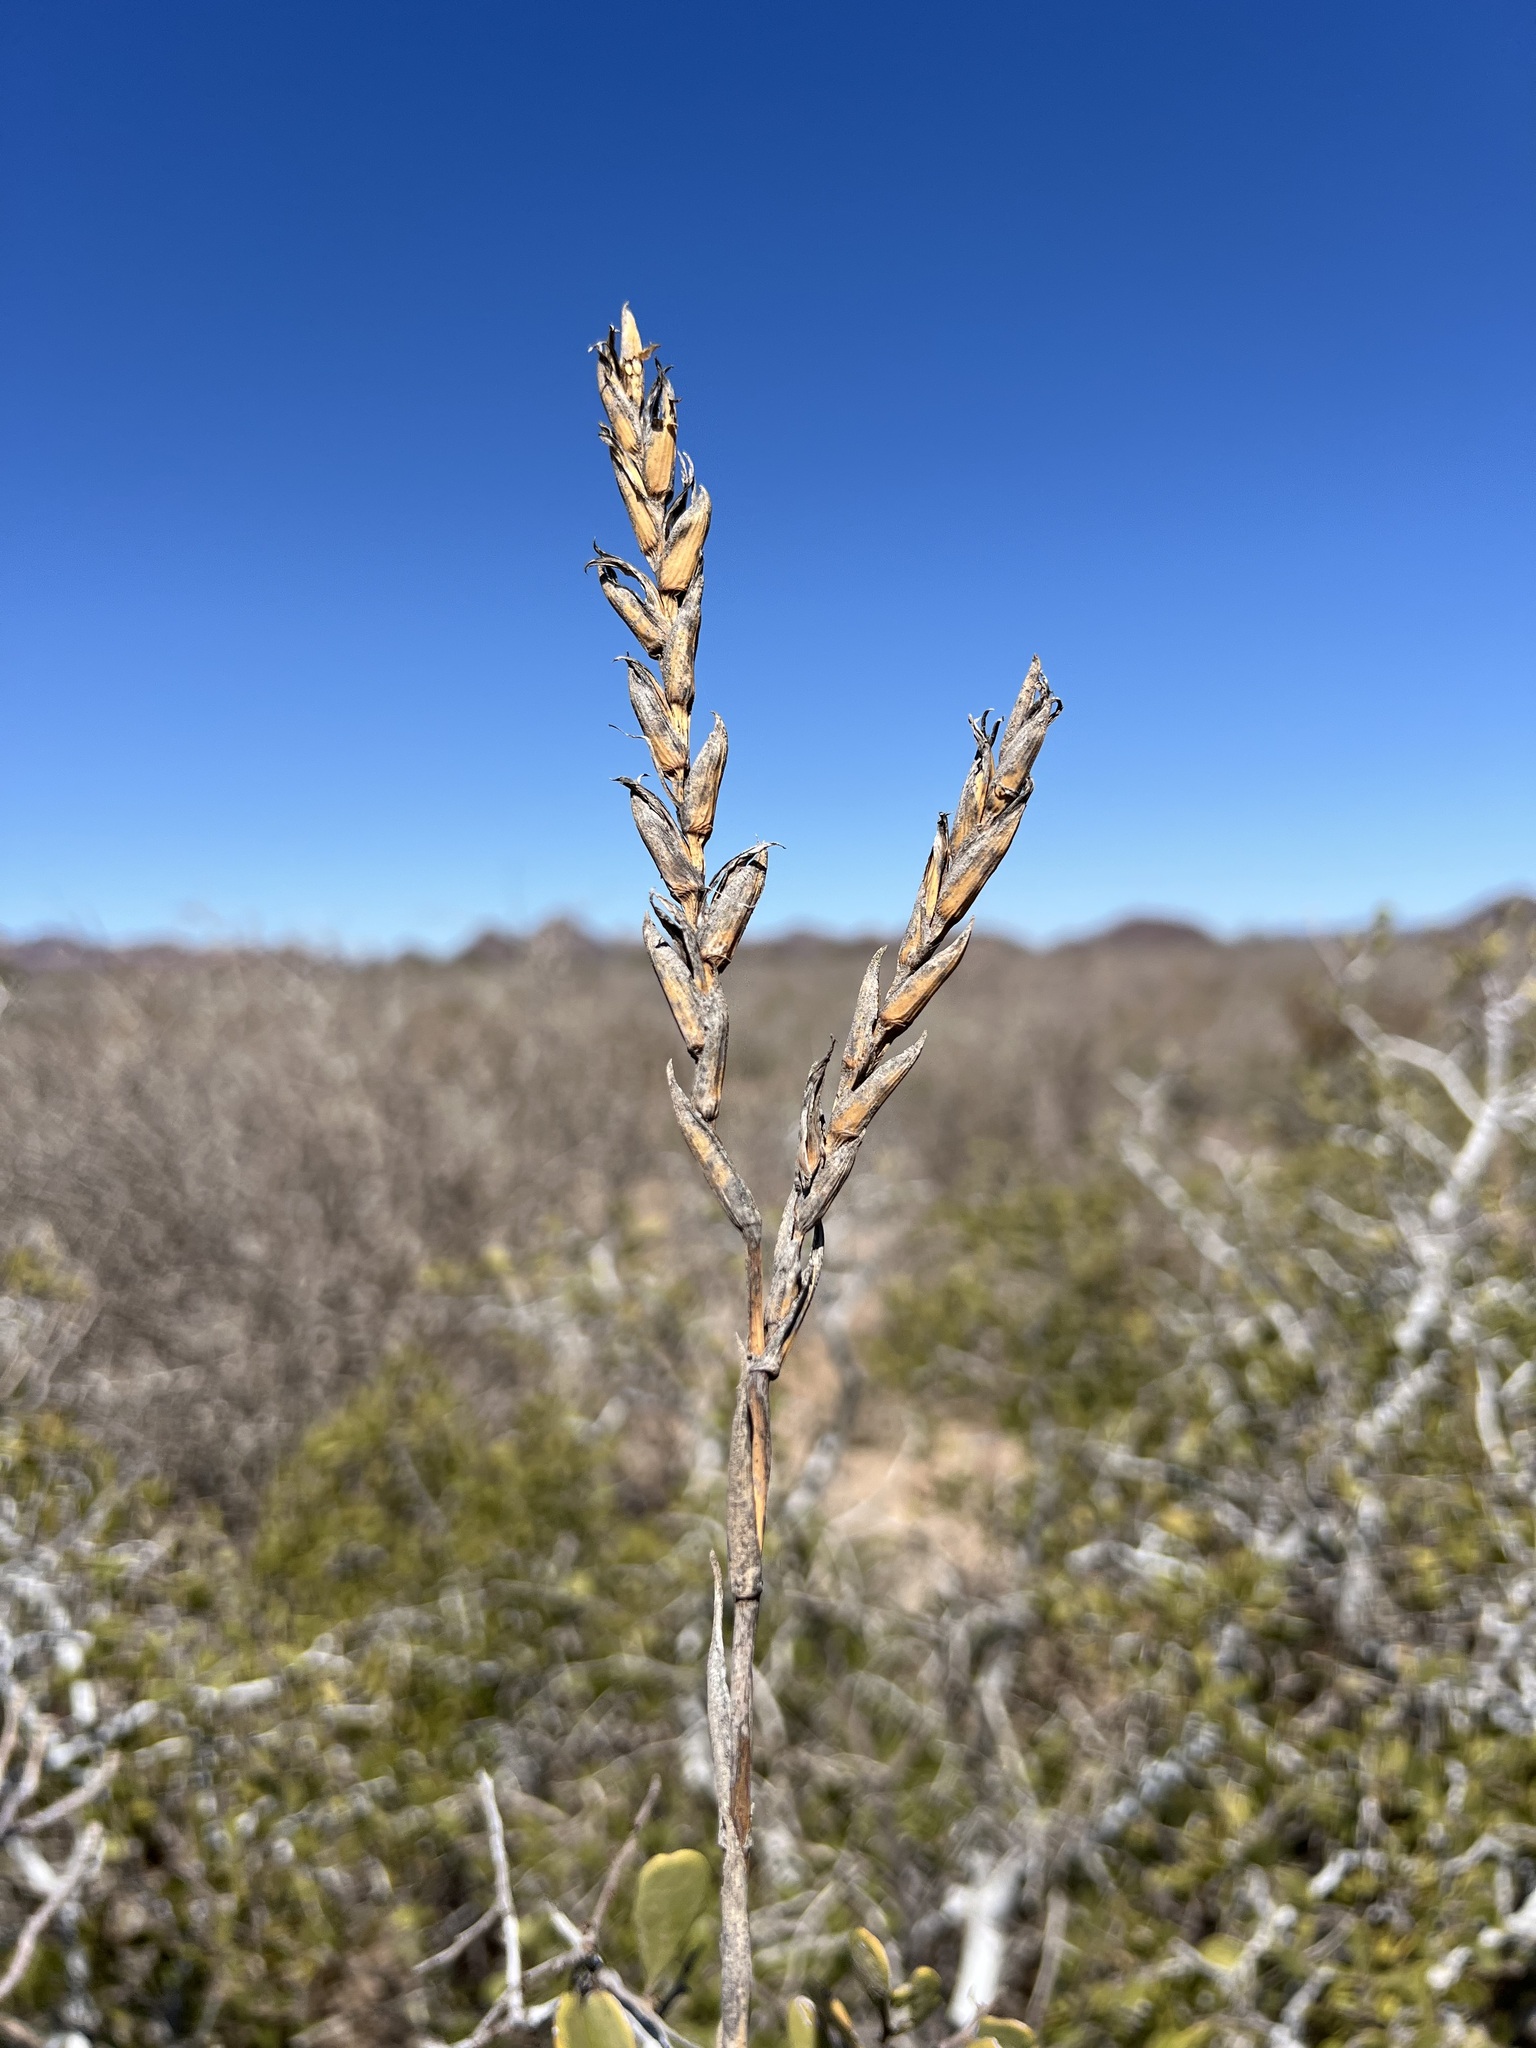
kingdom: Plantae
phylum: Tracheophyta
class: Liliopsida
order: Poales
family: Bromeliaceae
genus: Tillandsia
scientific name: Tillandsia exserta
